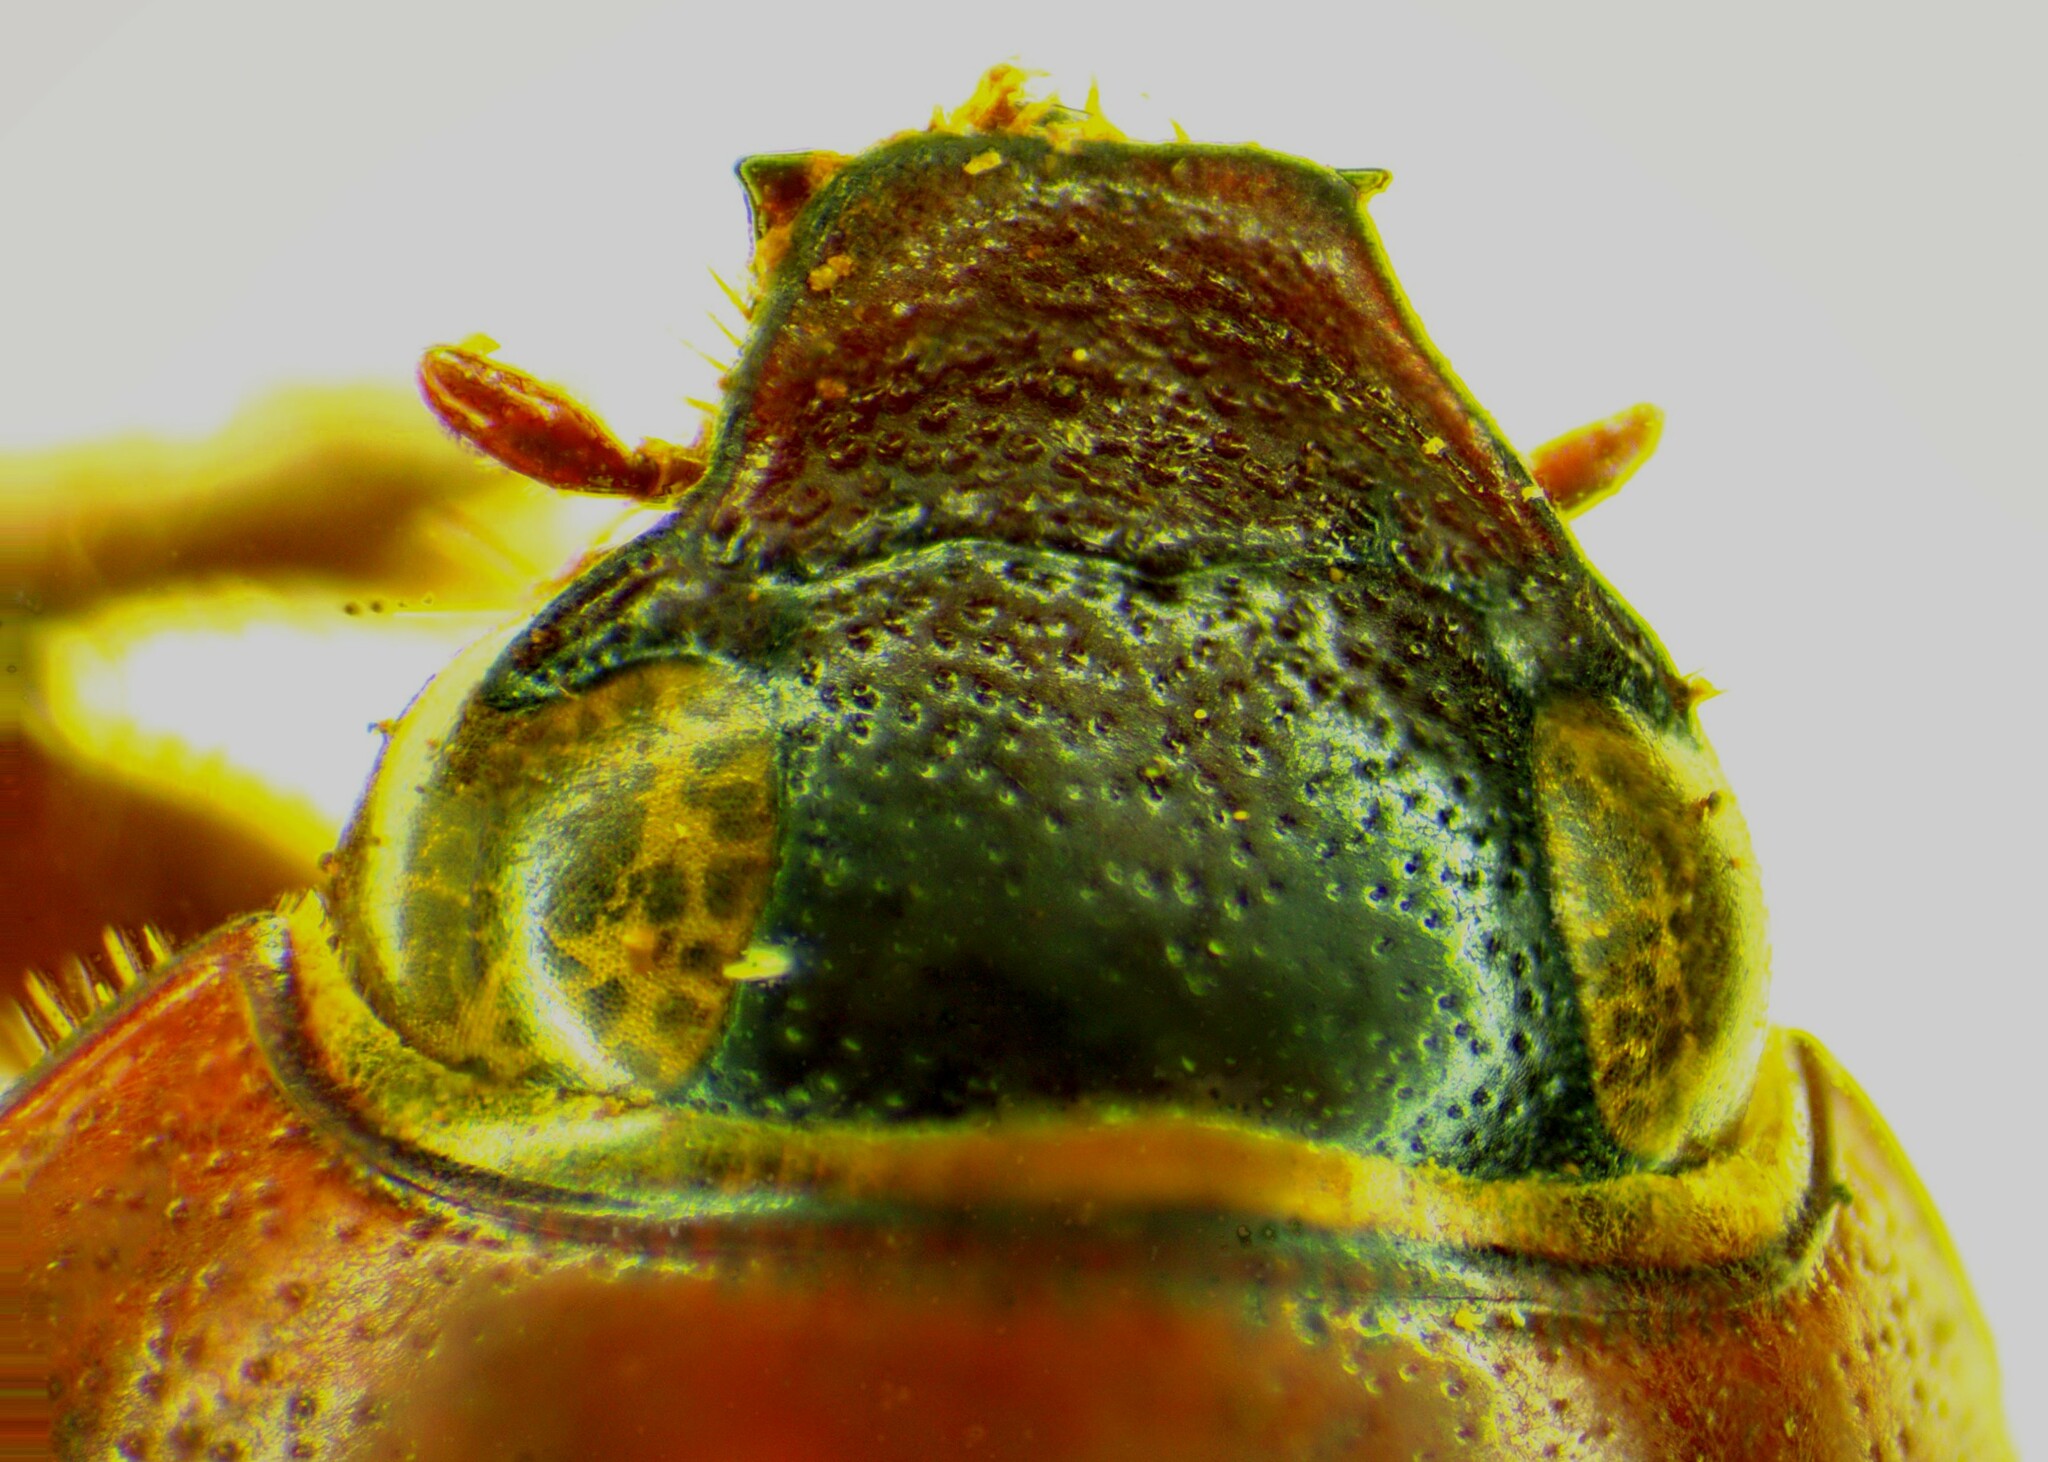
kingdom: Animalia
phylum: Arthropoda
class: Insecta
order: Coleoptera
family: Scarabaeidae
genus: Cyclocephala
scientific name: Cyclocephala melanocephala
